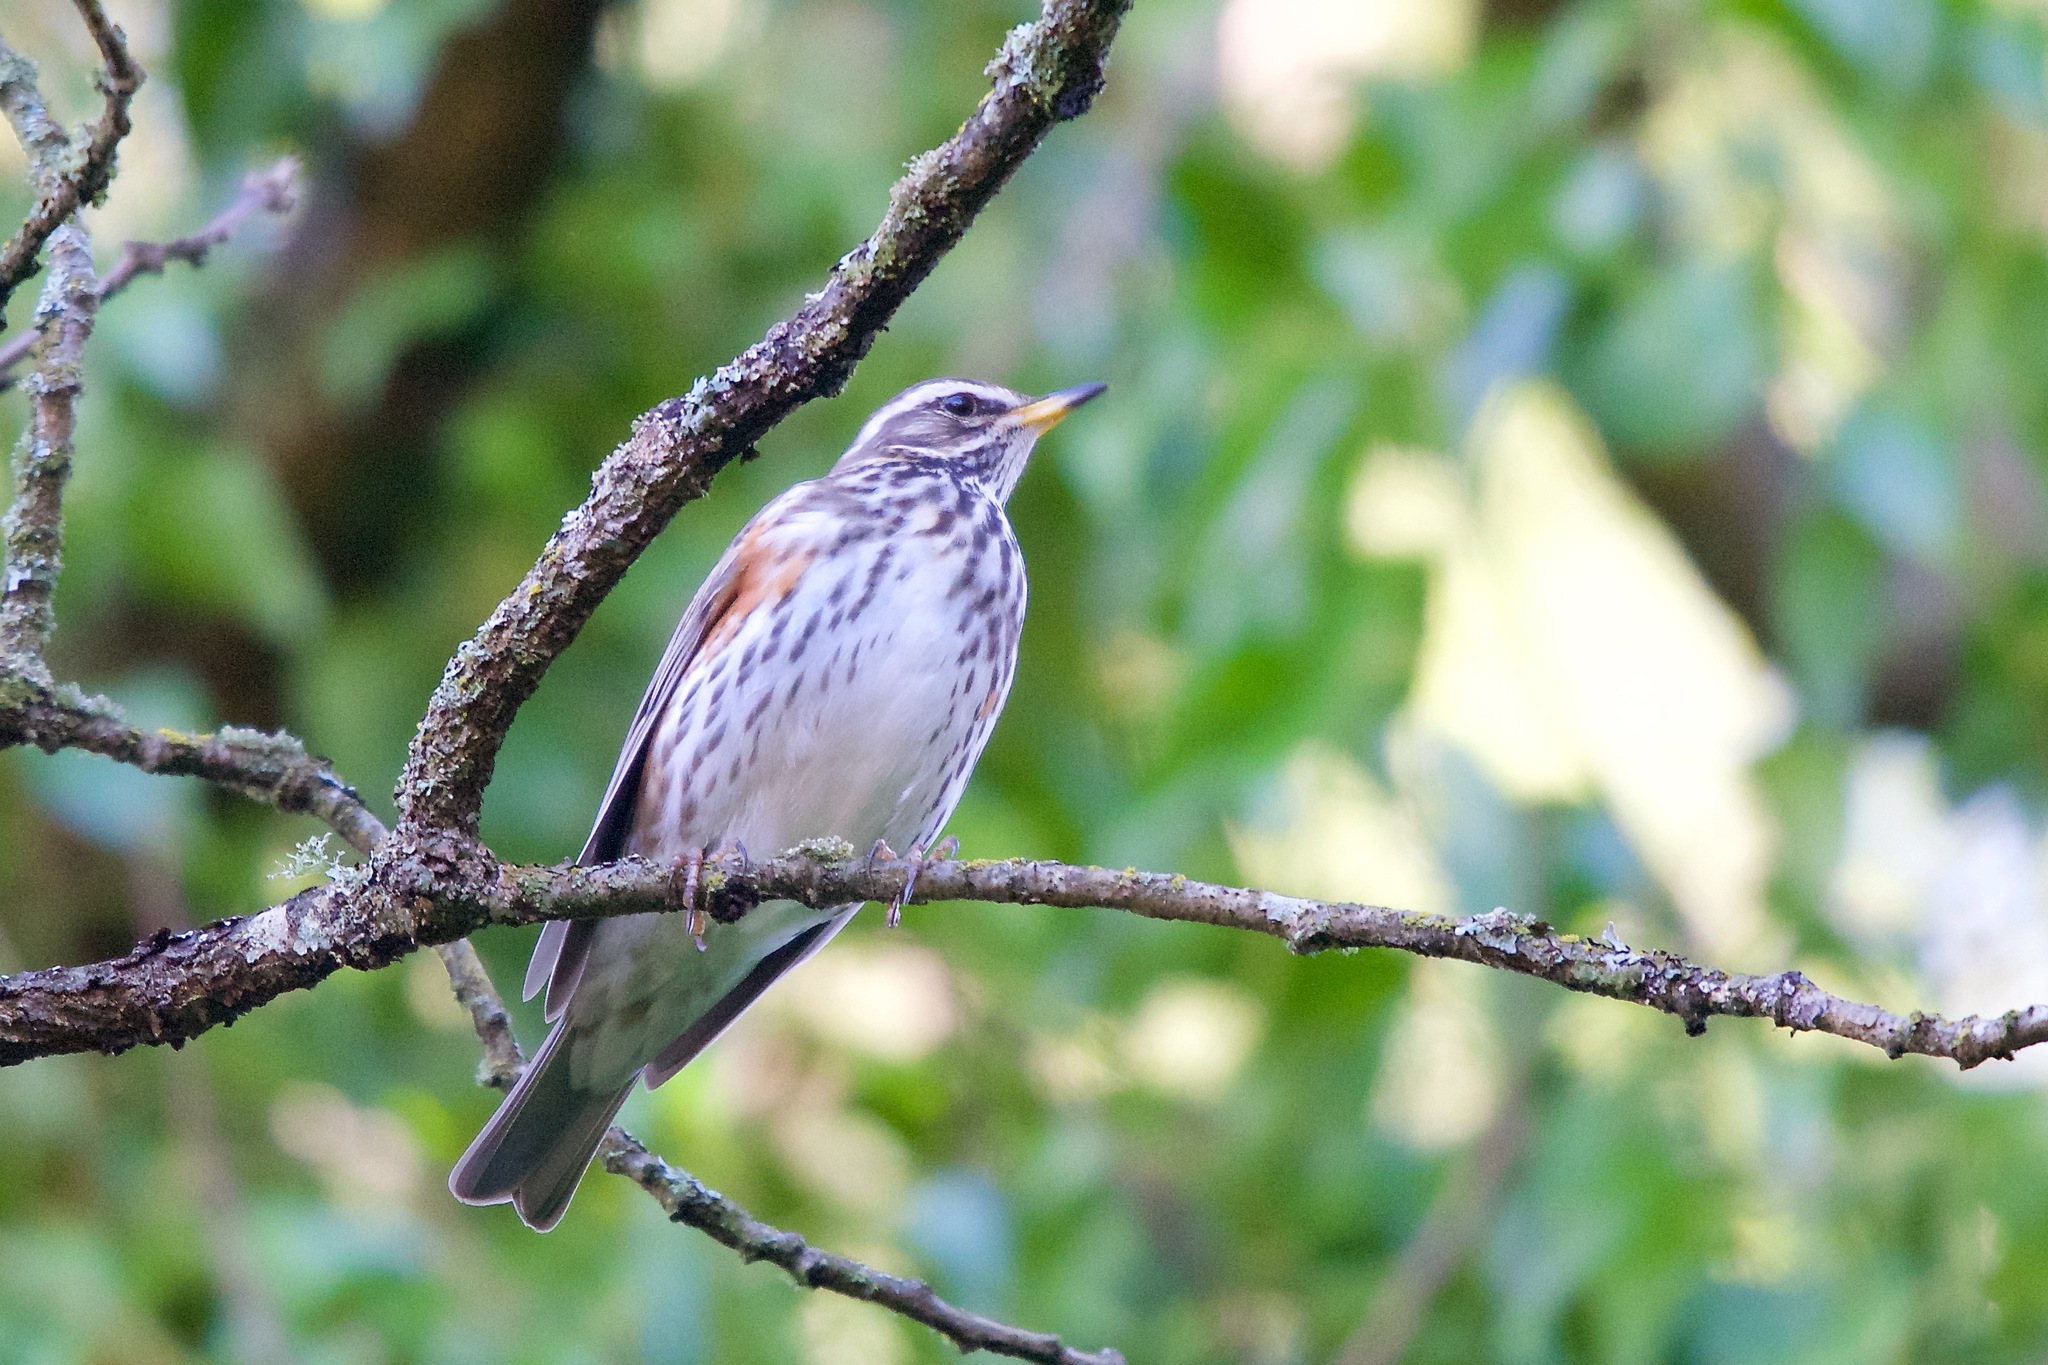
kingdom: Animalia
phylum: Chordata
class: Aves
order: Passeriformes
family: Turdidae
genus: Turdus
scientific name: Turdus iliacus
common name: Redwing
